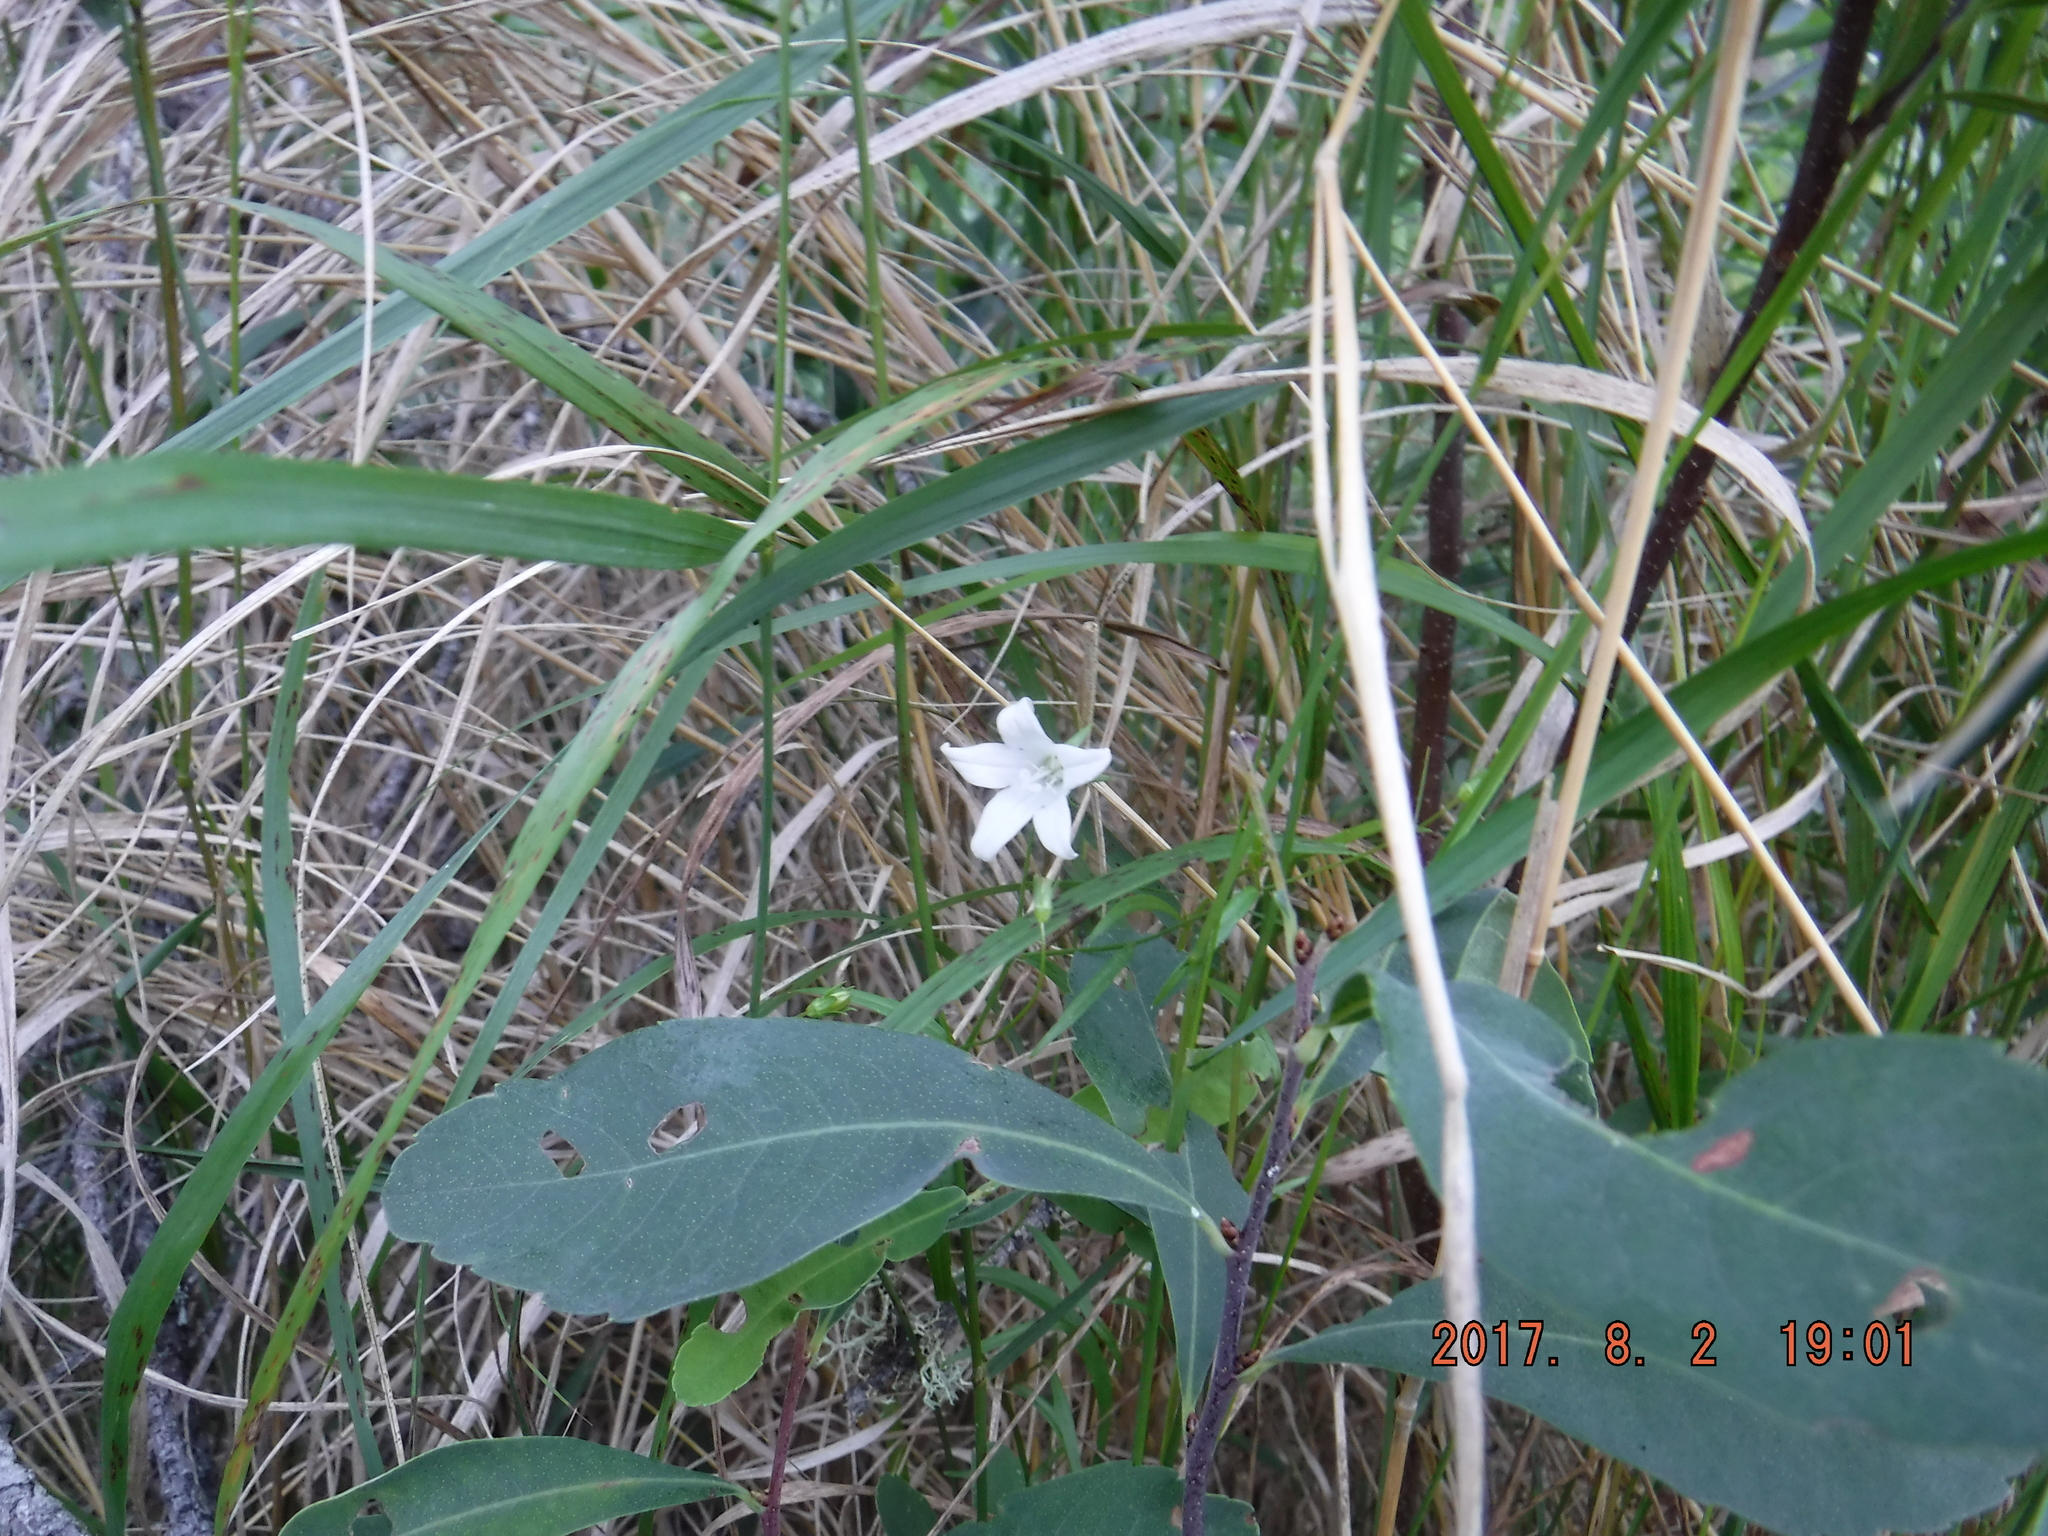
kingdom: Plantae
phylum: Tracheophyta
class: Magnoliopsida
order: Asterales
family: Campanulaceae
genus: Palustricodon
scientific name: Palustricodon aparinoides
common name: Bedstraw bellflower
